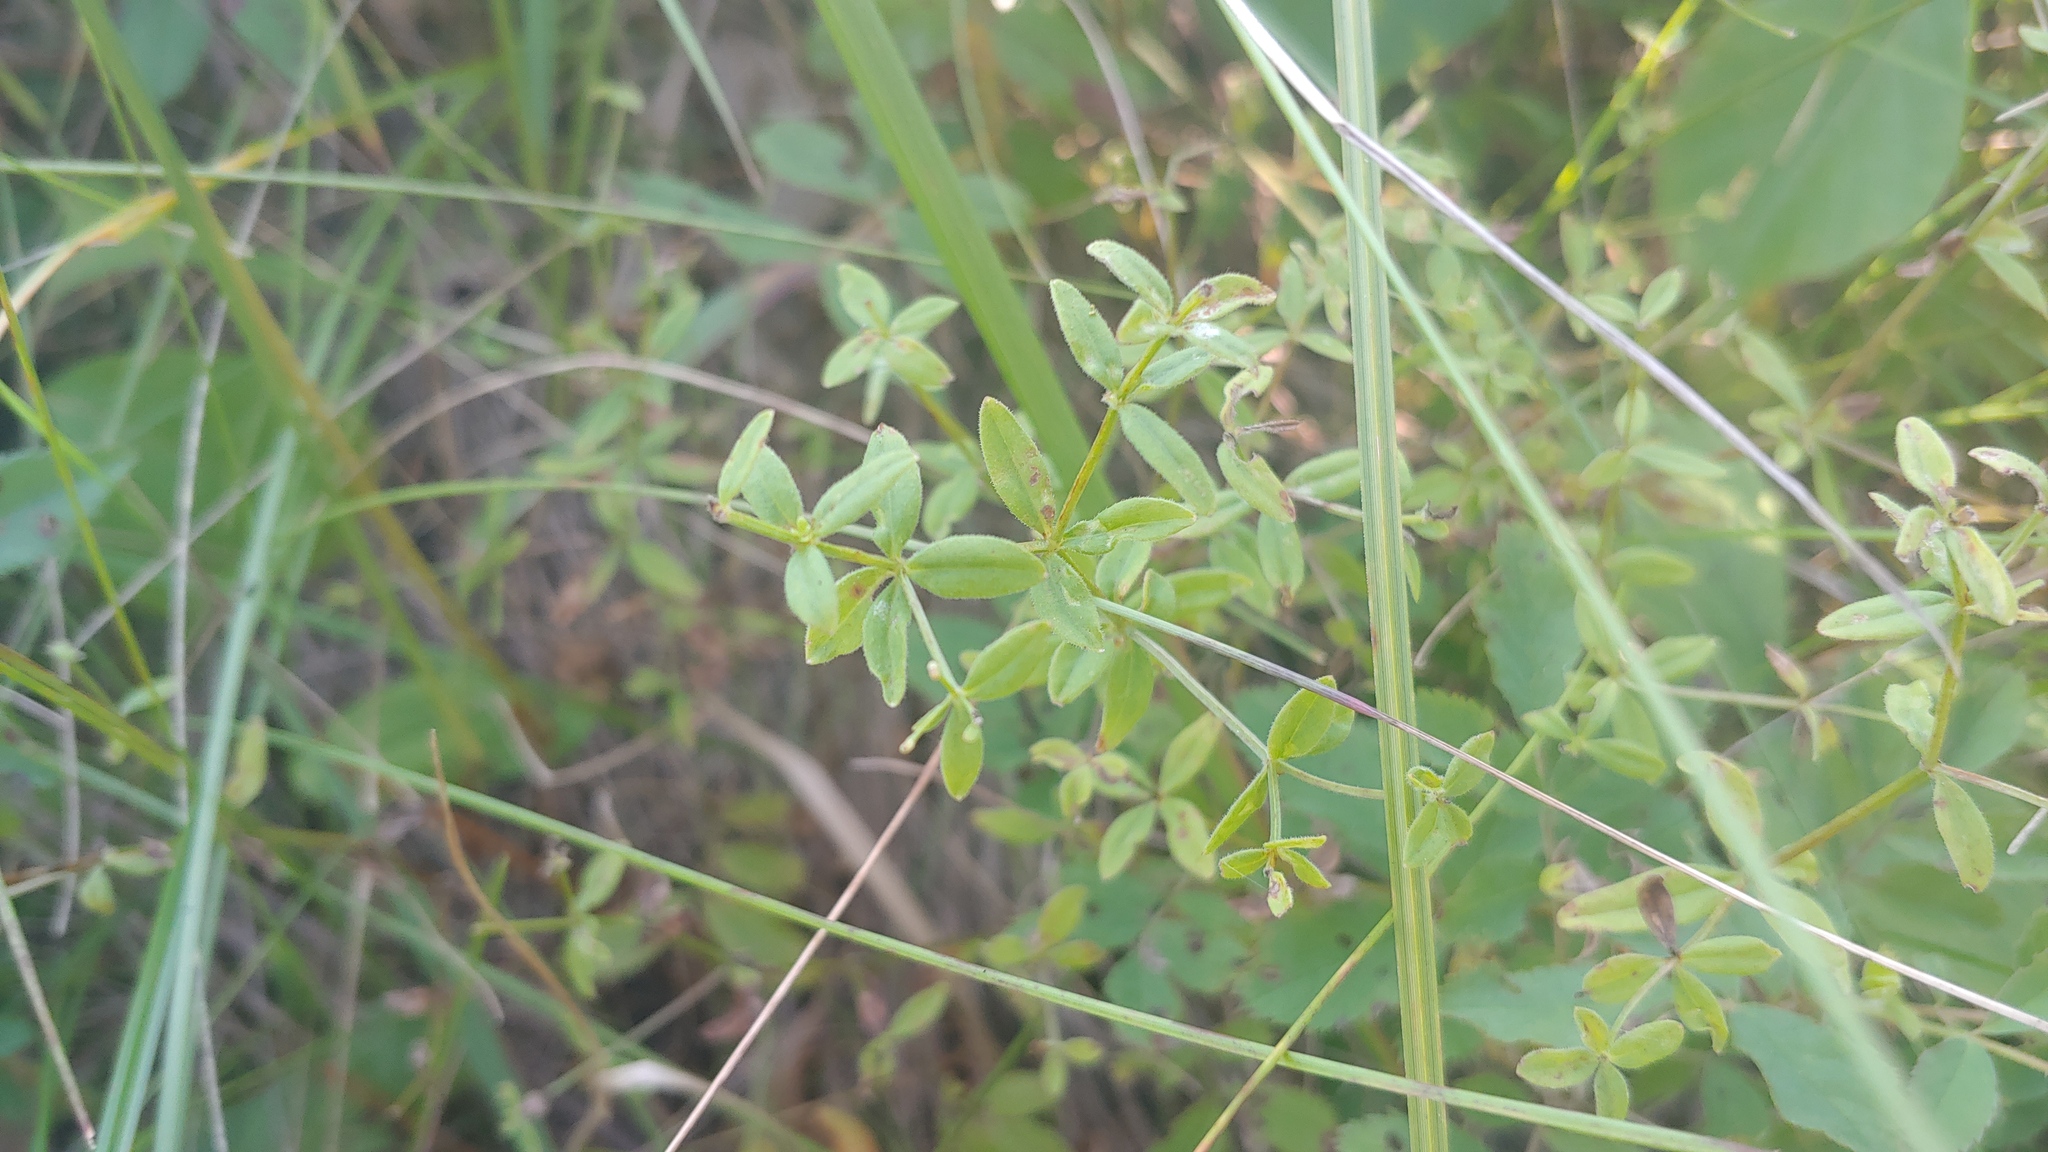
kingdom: Plantae
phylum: Tracheophyta
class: Magnoliopsida
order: Gentianales
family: Rubiaceae
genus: Galium
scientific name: Galium obtusum
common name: Blunt-leaved bedstraw
